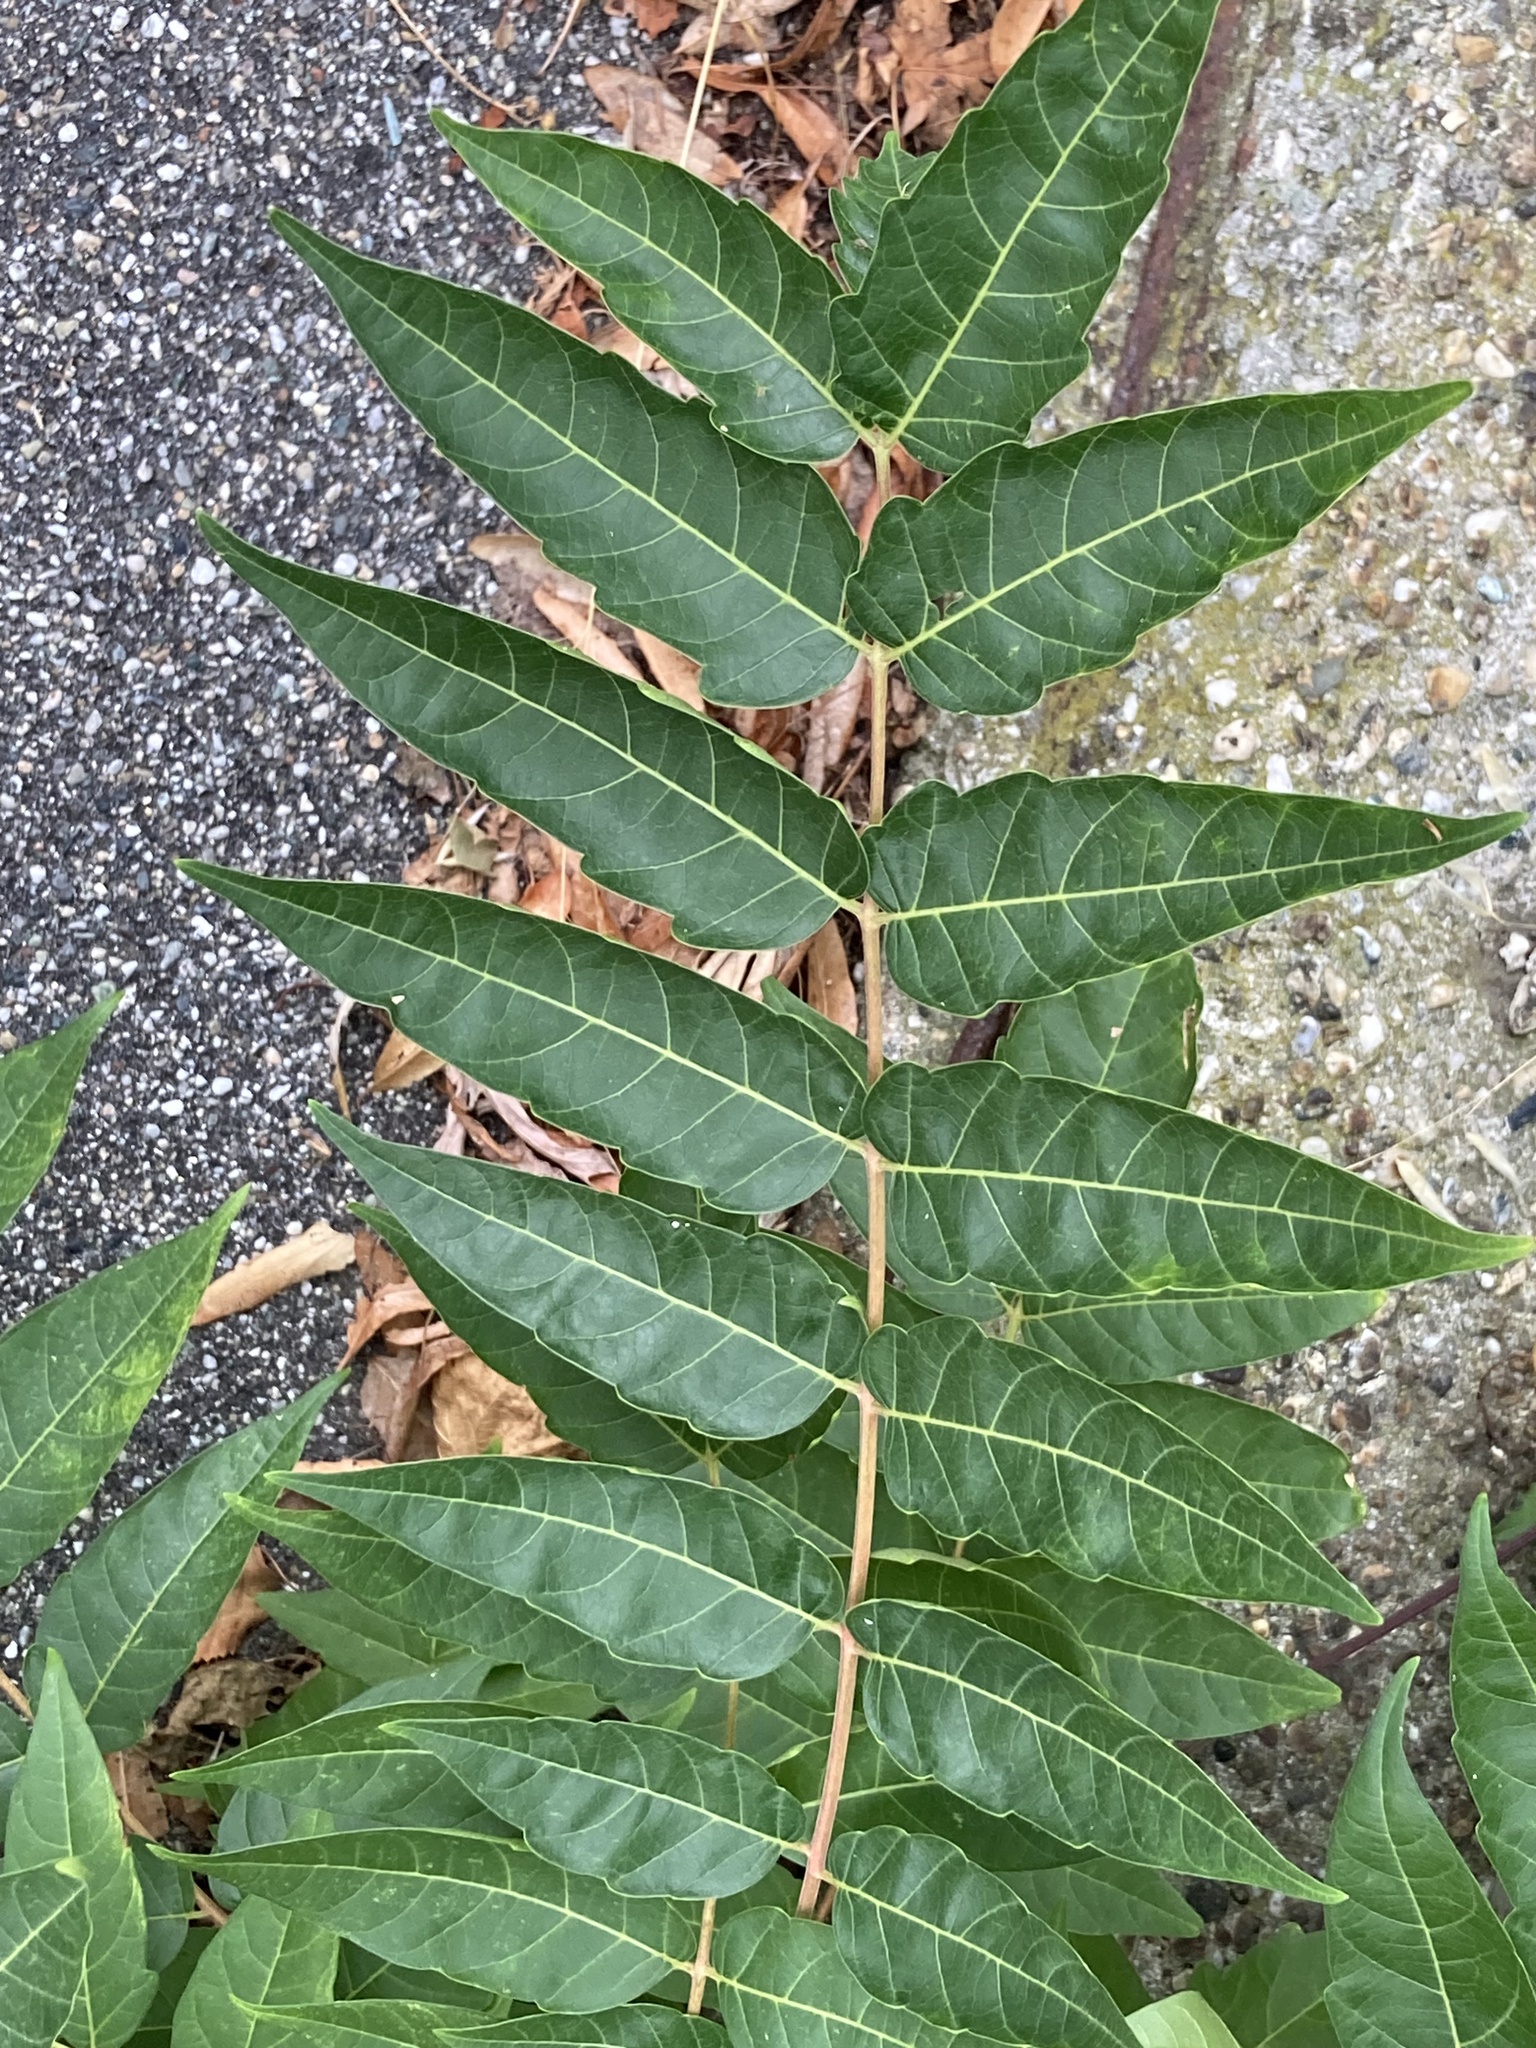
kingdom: Plantae
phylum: Tracheophyta
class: Magnoliopsida
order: Sapindales
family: Simaroubaceae
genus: Ailanthus
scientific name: Ailanthus altissima
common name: Tree-of-heaven
